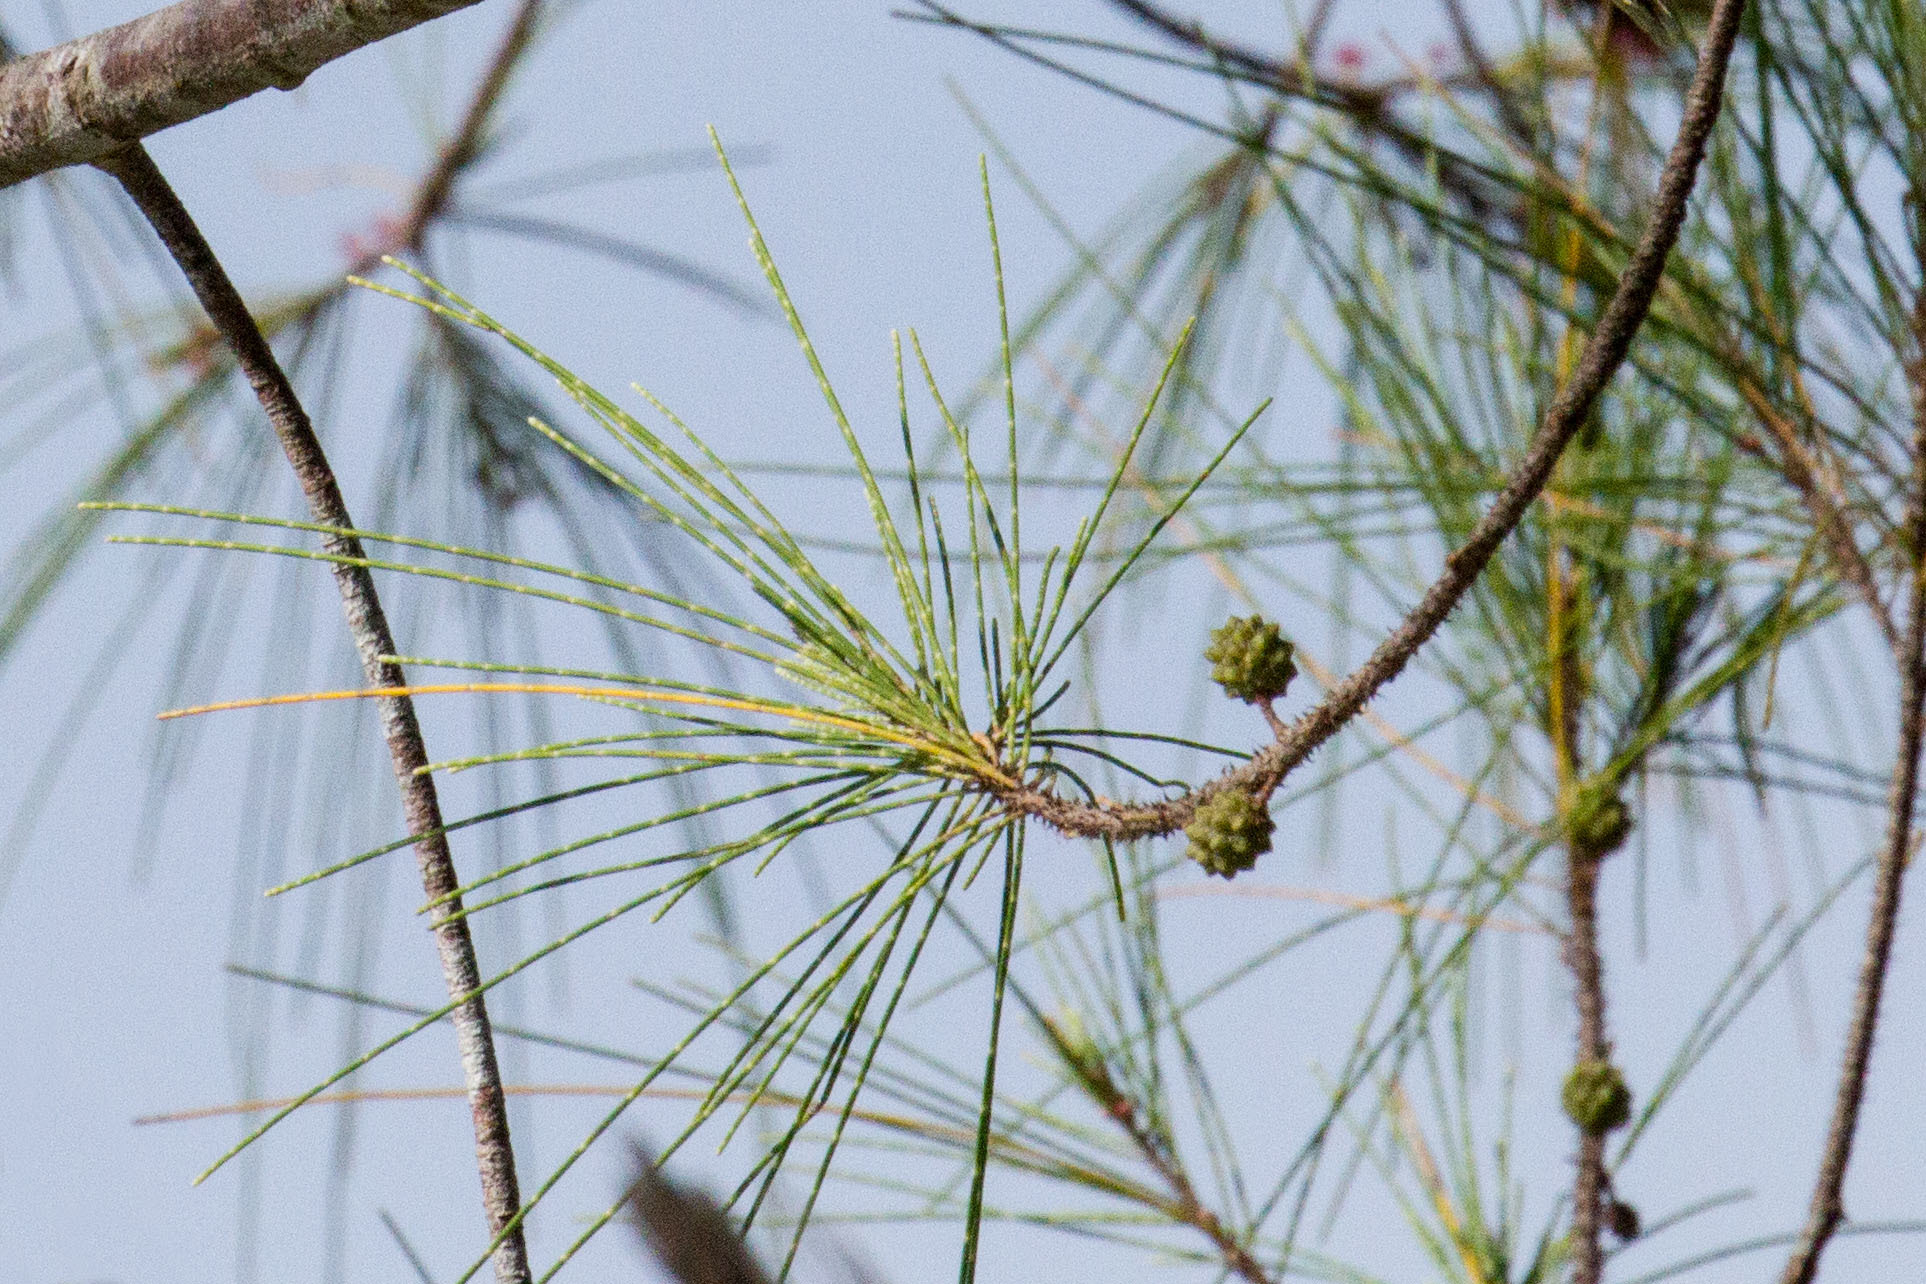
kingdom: Plantae
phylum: Tracheophyta
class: Magnoliopsida
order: Fagales
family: Casuarinaceae
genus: Casuarina
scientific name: Casuarina equisetifolia
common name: Beach sheoak
